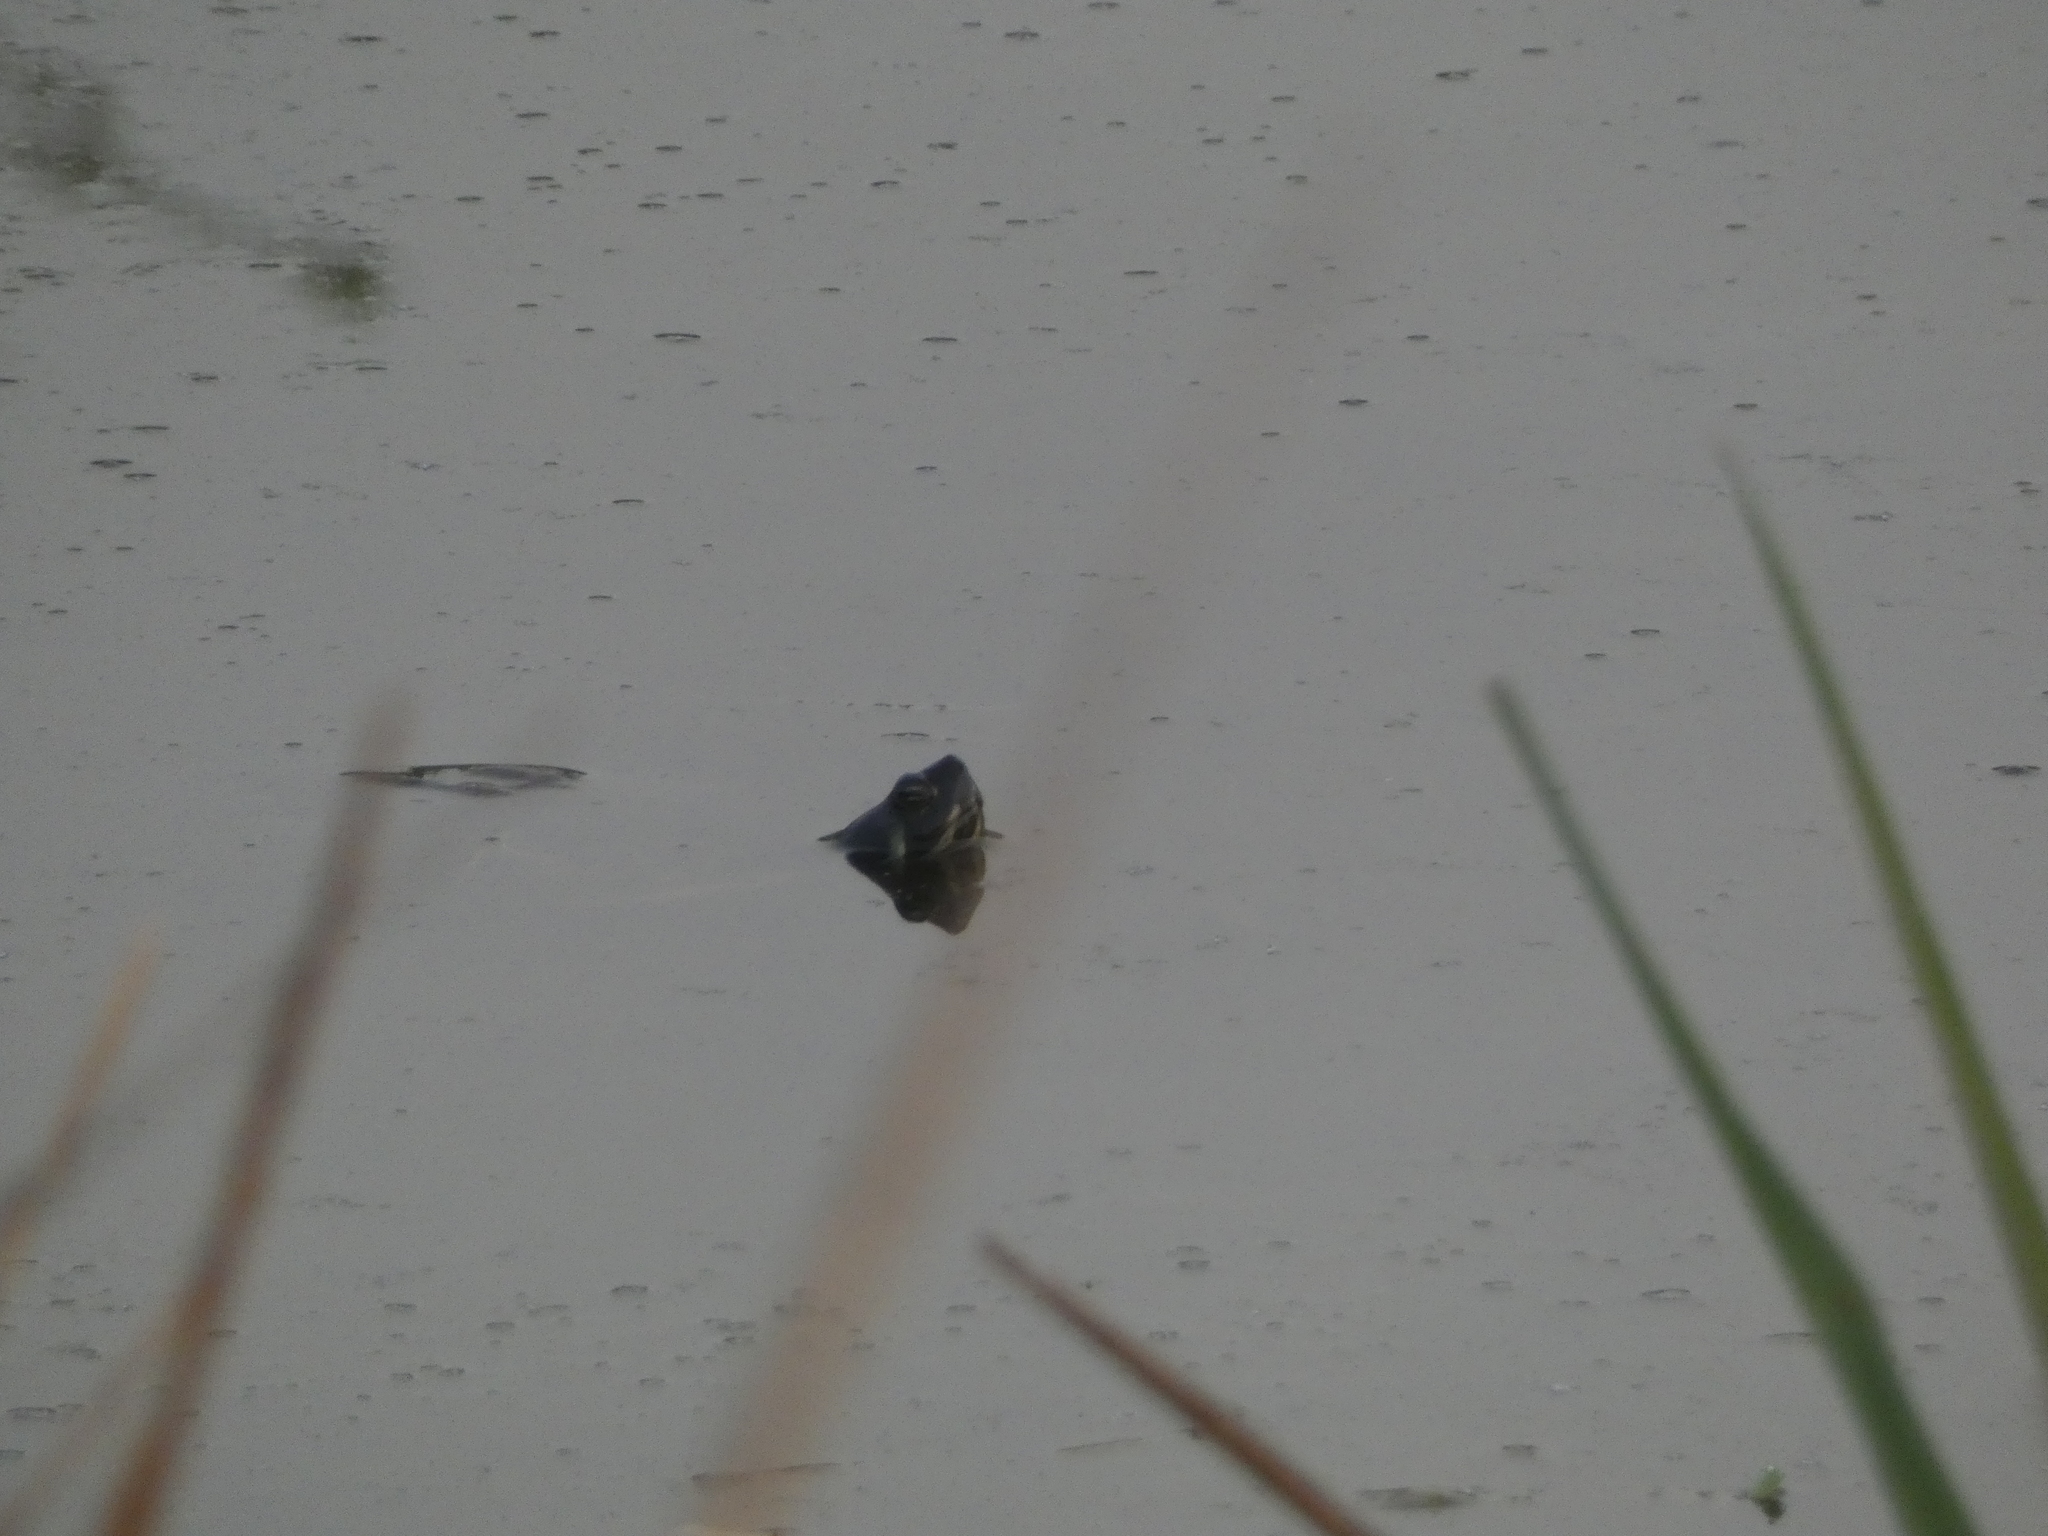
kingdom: Animalia
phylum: Chordata
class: Testudines
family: Emydidae
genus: Trachemys
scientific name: Trachemys scripta
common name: Slider
